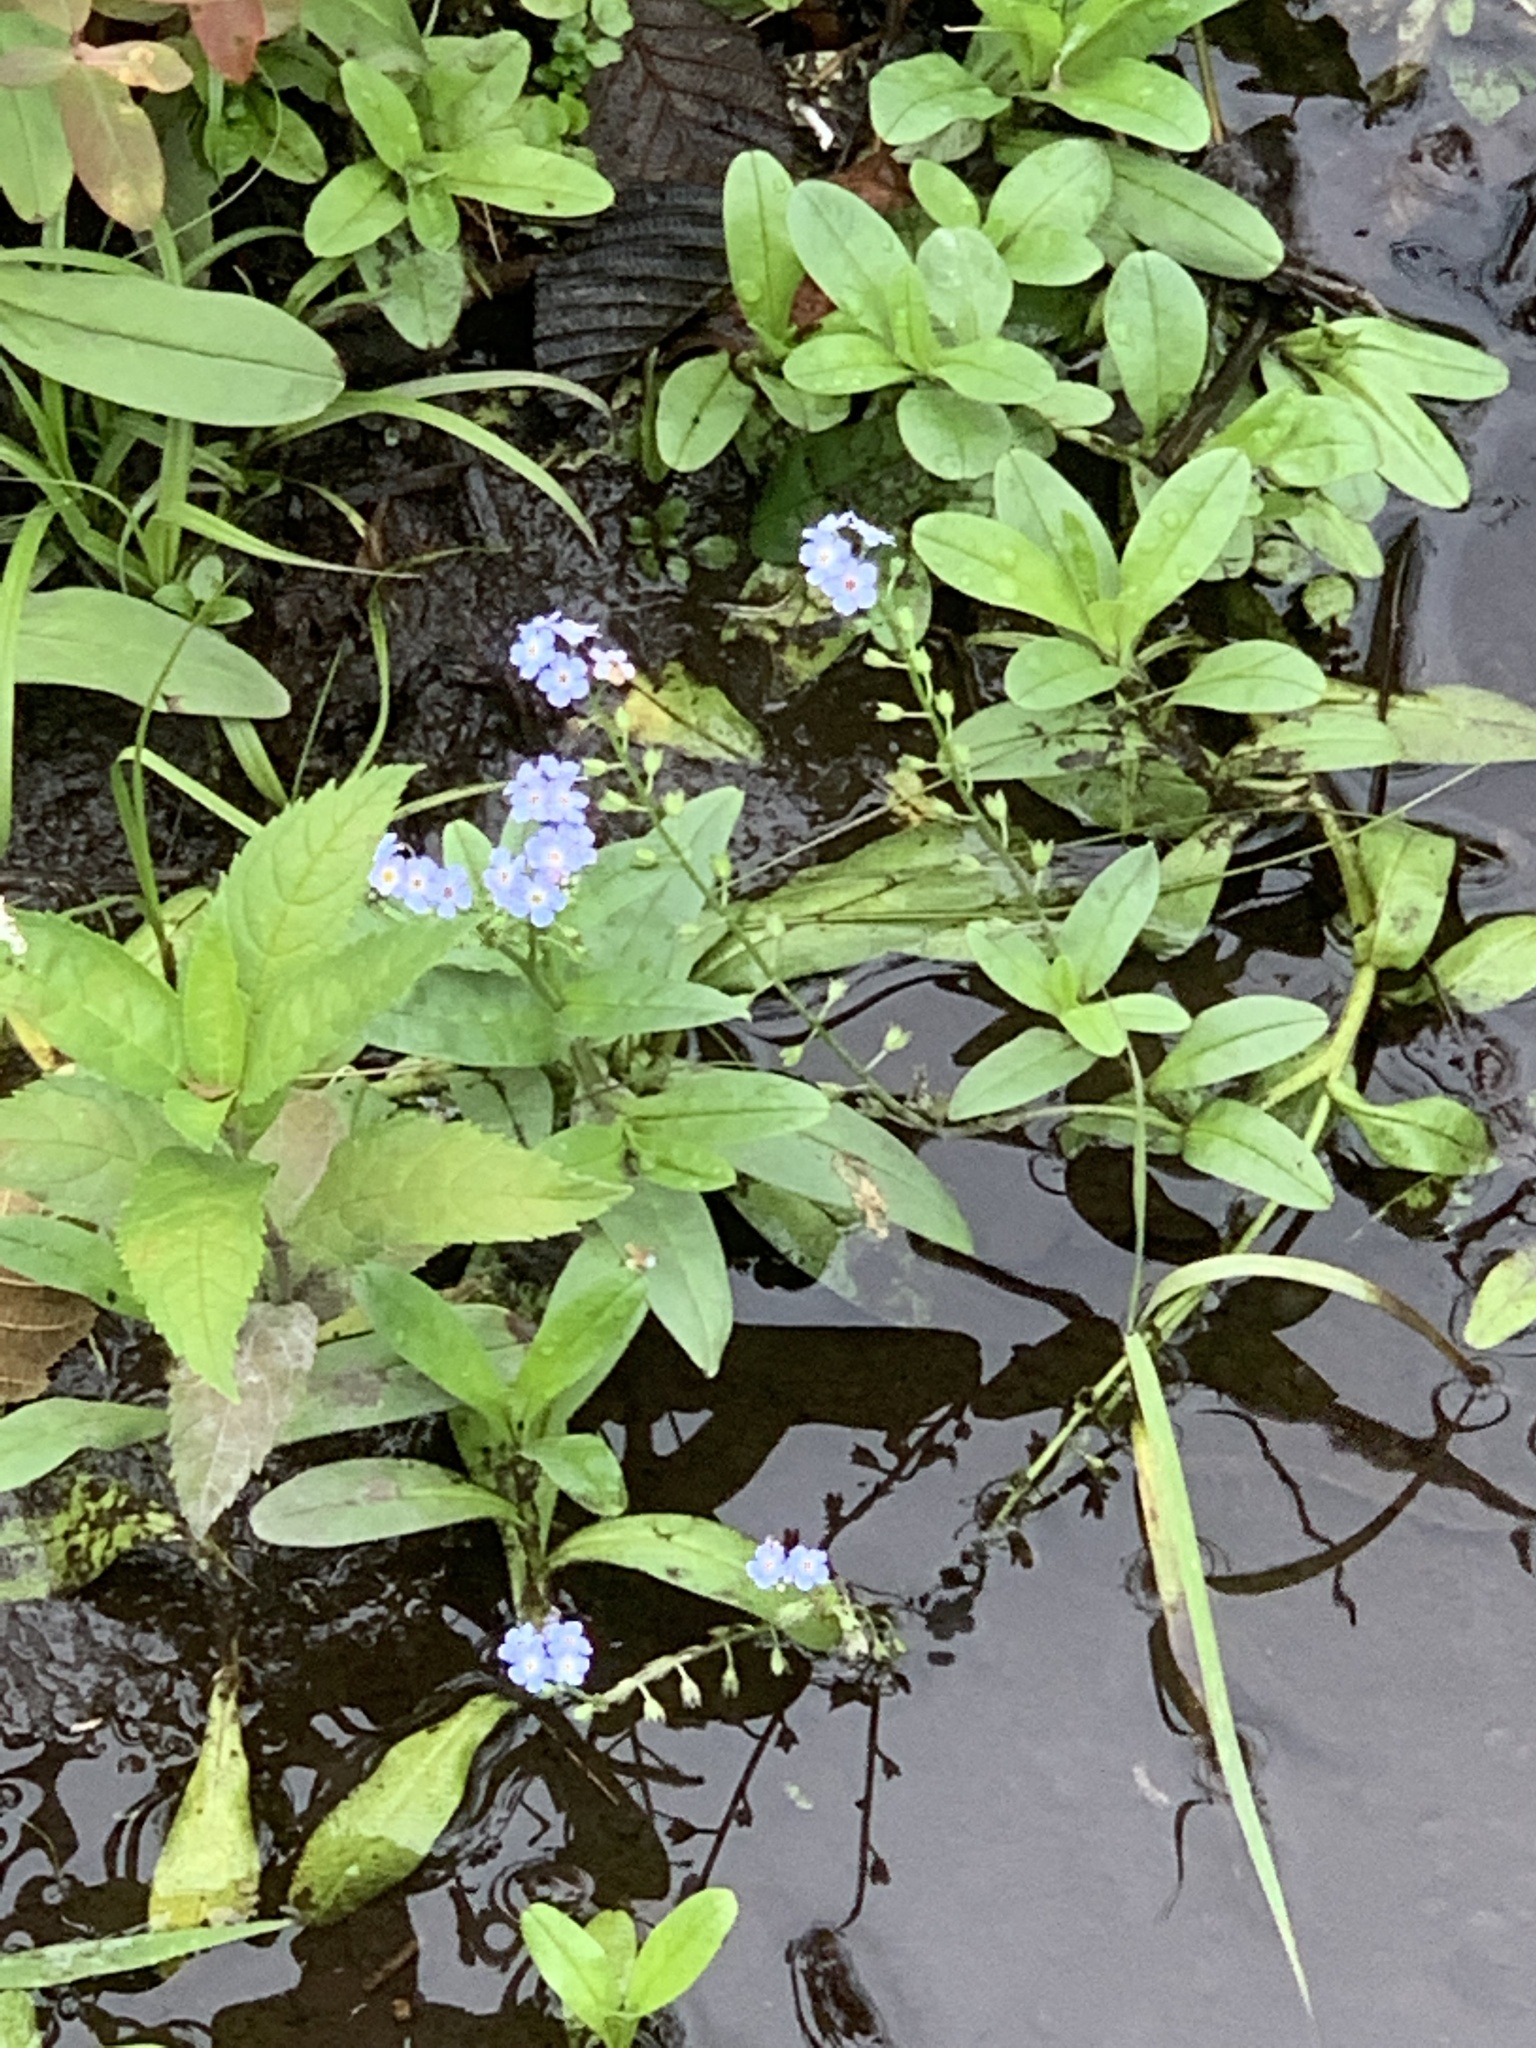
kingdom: Plantae
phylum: Tracheophyta
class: Magnoliopsida
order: Boraginales
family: Boraginaceae
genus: Myosotis
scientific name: Myosotis scorpioides
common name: Water forget-me-not
